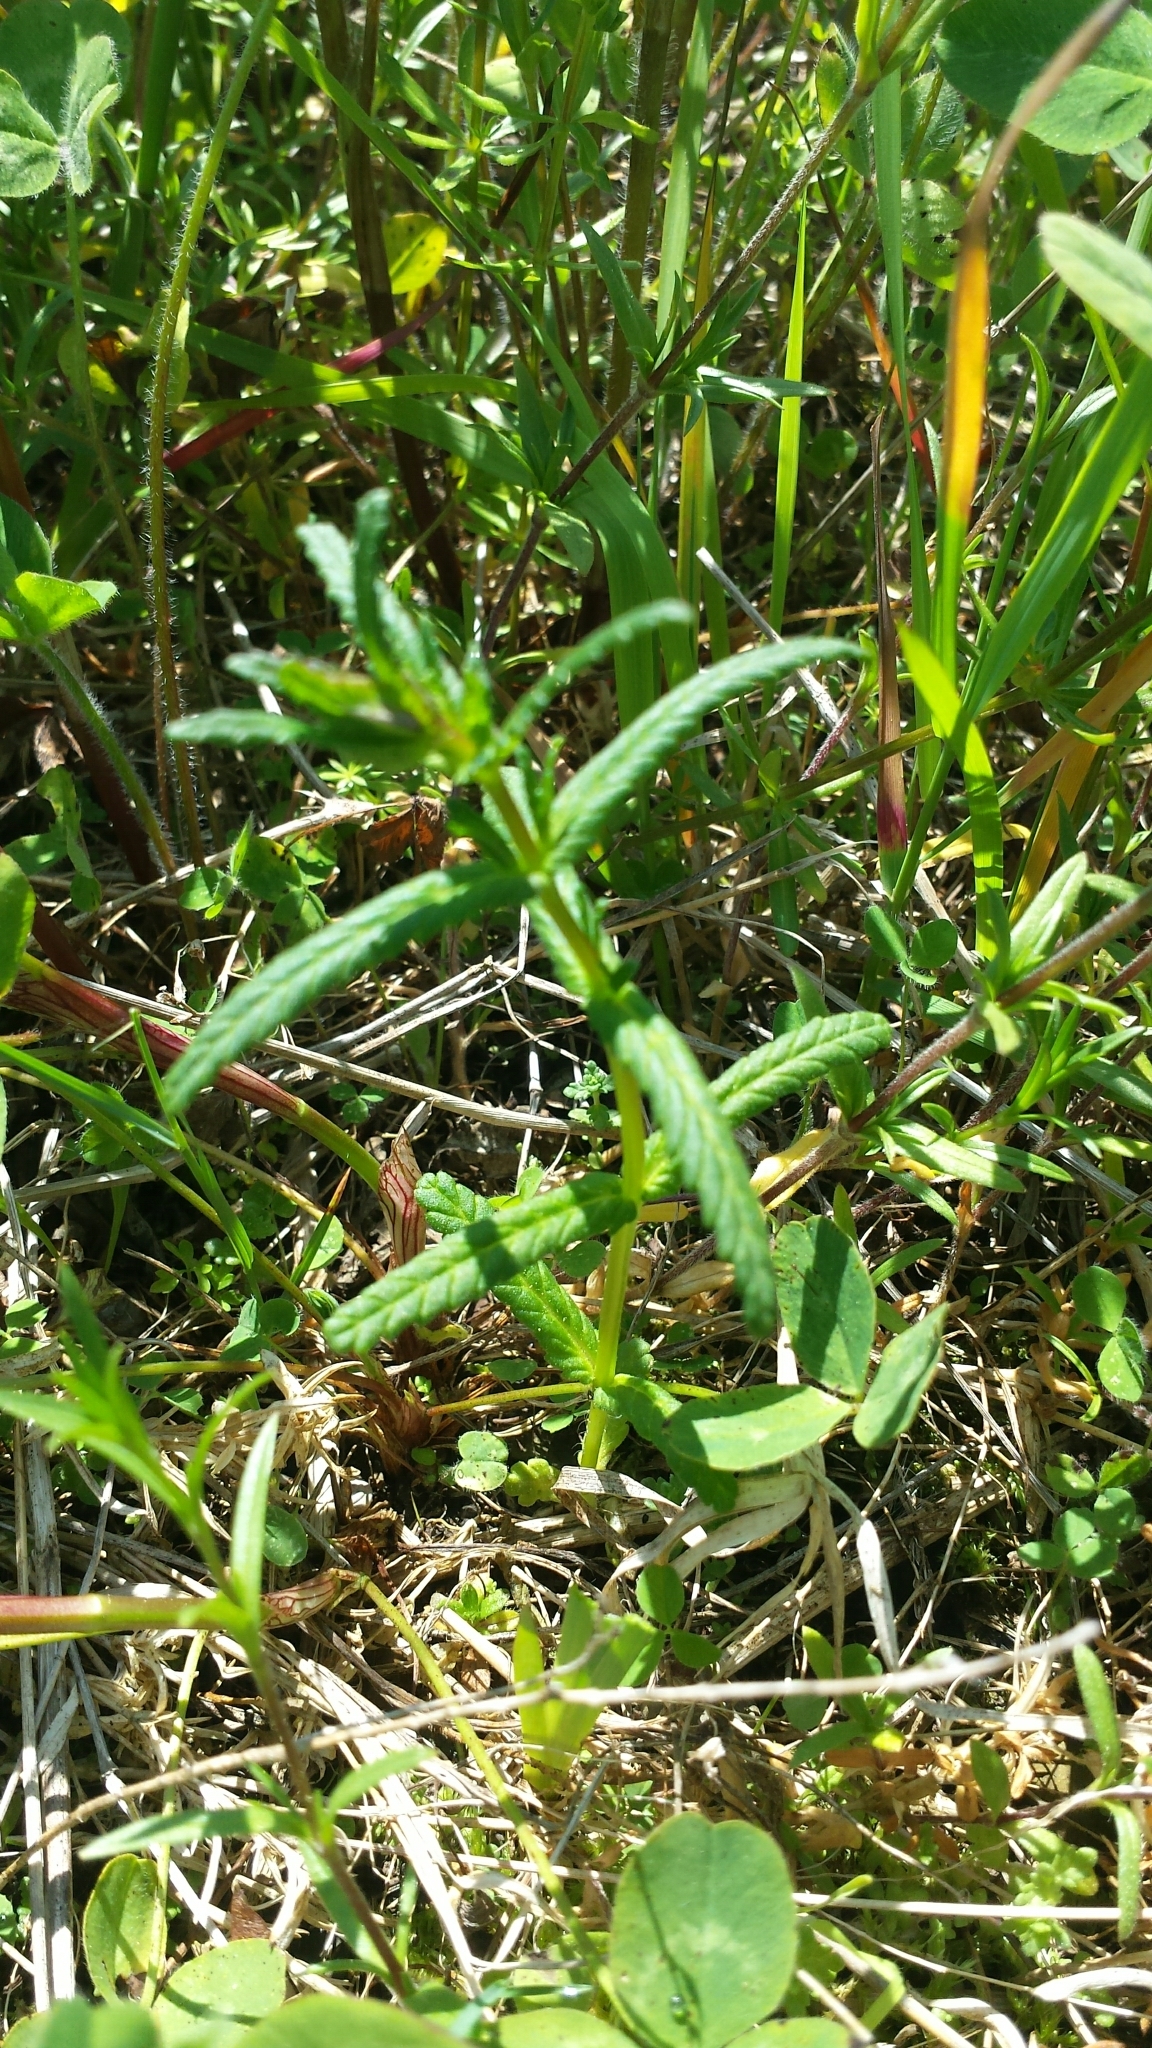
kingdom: Plantae
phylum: Tracheophyta
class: Magnoliopsida
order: Lamiales
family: Orobanchaceae
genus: Rhinanthus
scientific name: Rhinanthus minor
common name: Yellow-rattle
